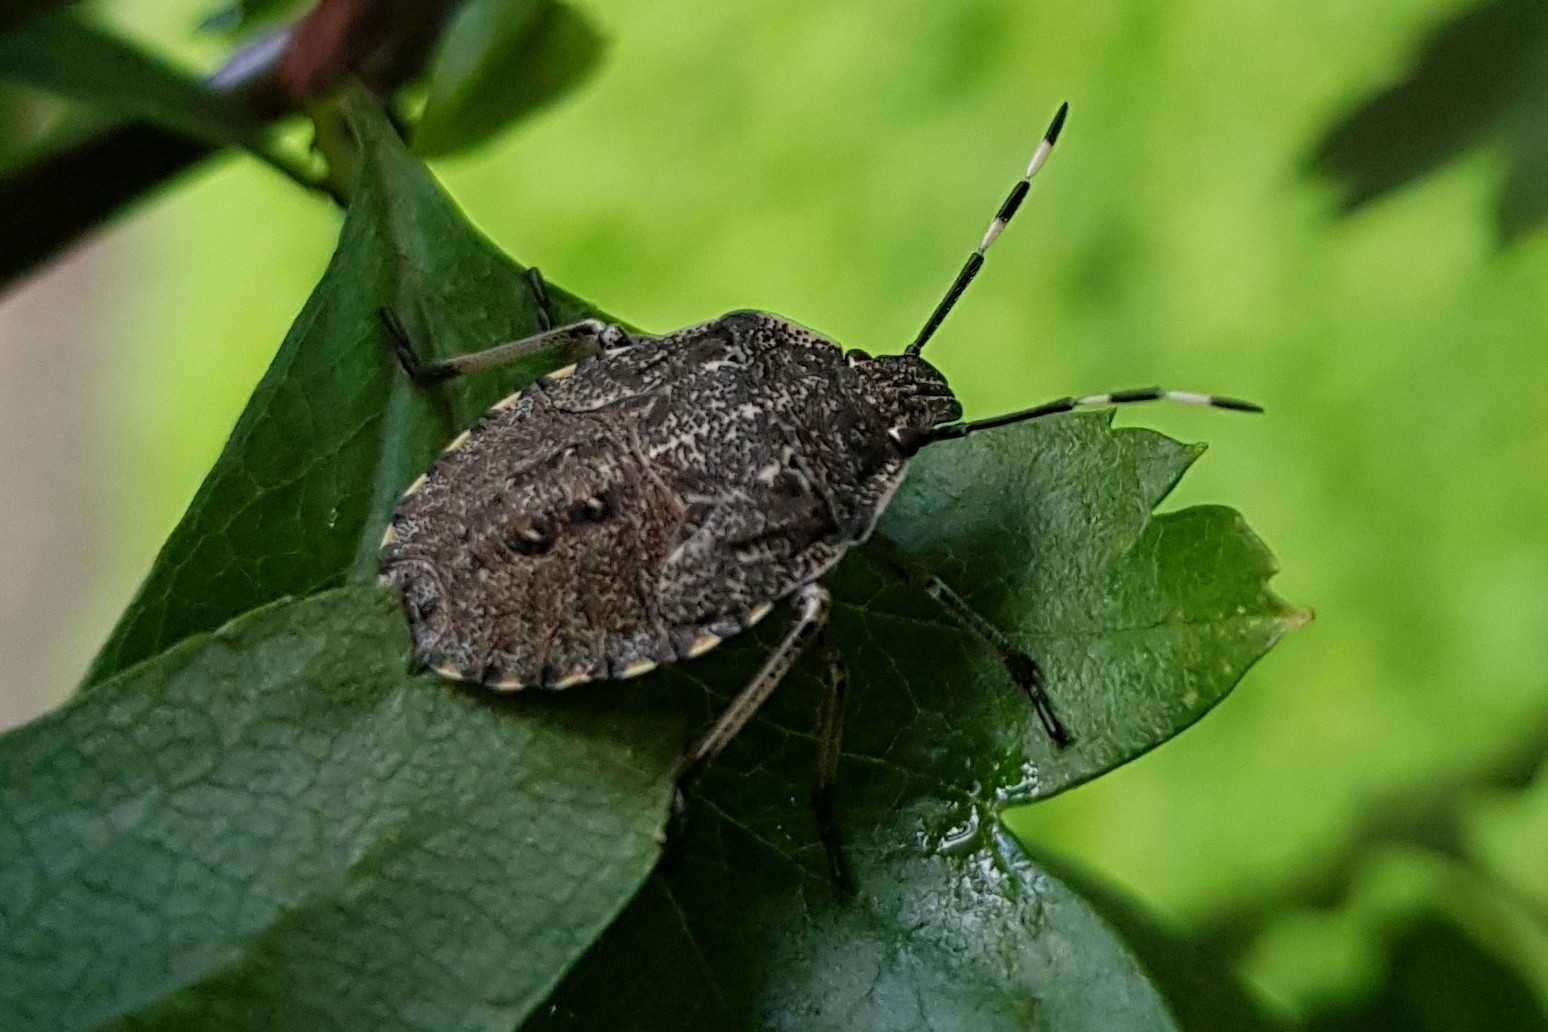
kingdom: Animalia
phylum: Arthropoda
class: Insecta
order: Hemiptera
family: Pentatomidae
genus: Rhaphigaster
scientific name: Rhaphigaster nebulosa
